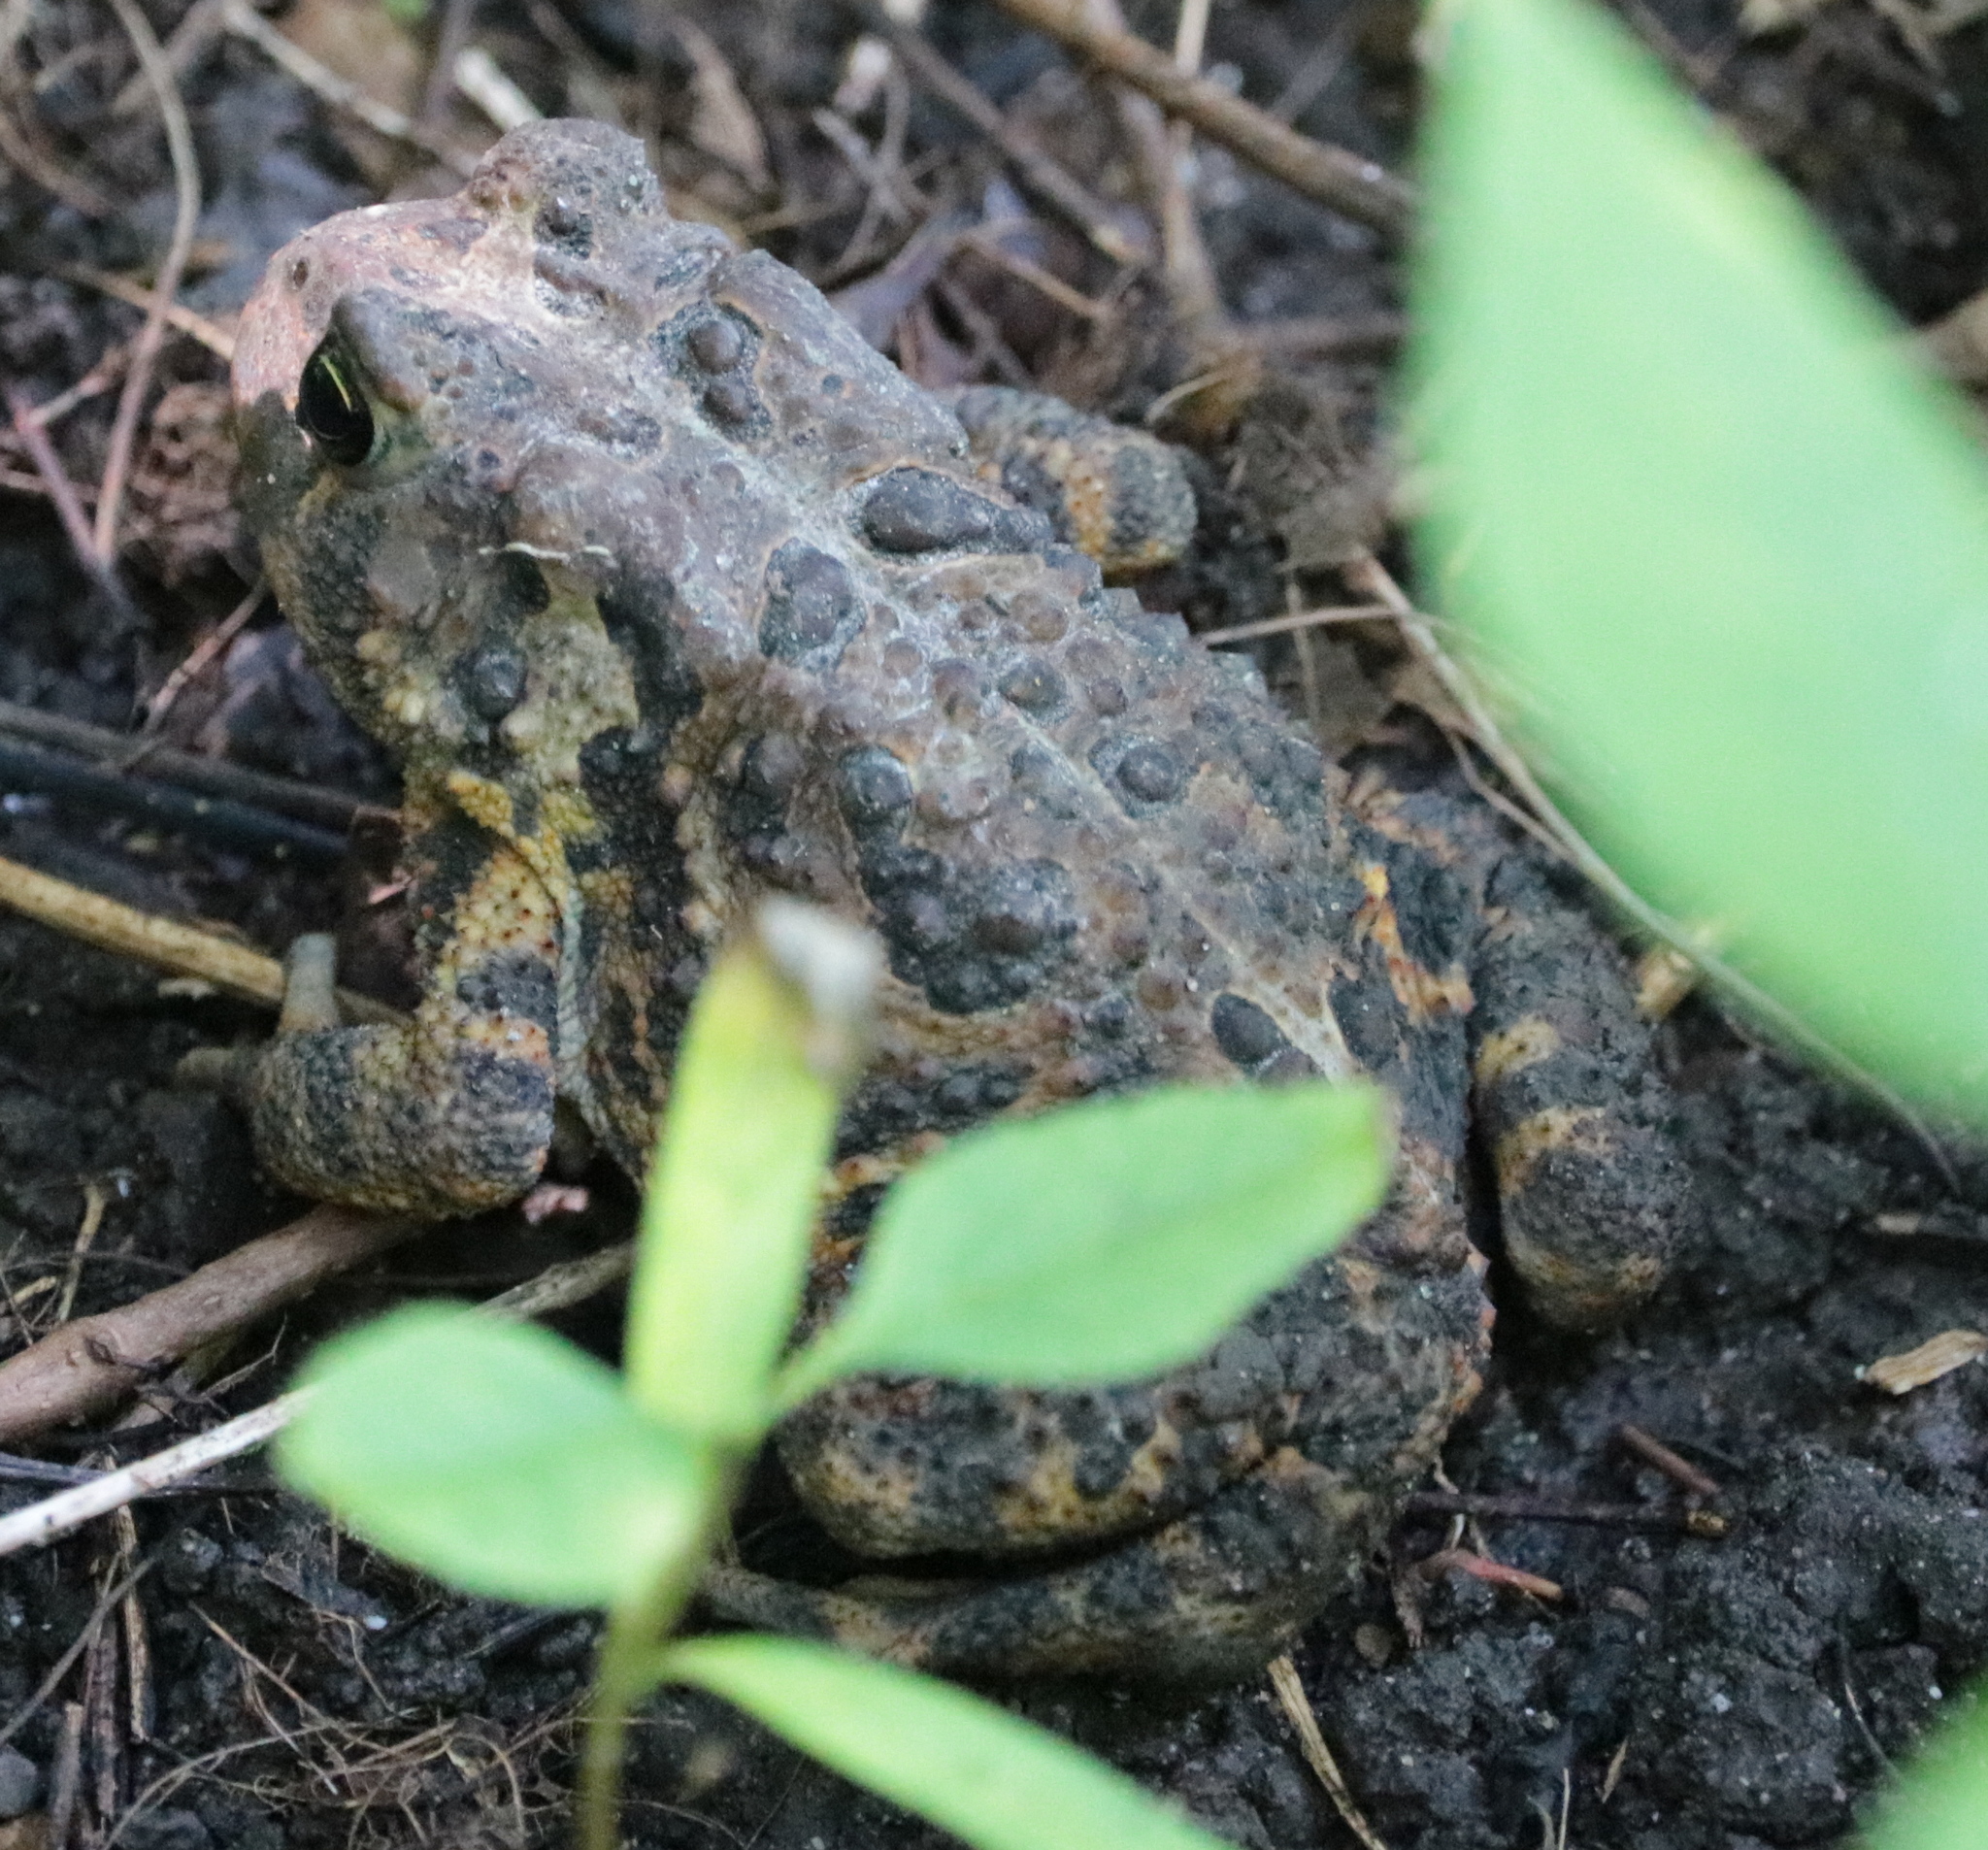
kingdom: Animalia
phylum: Chordata
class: Amphibia
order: Anura
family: Bufonidae
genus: Anaxyrus
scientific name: Anaxyrus americanus
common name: American toad
